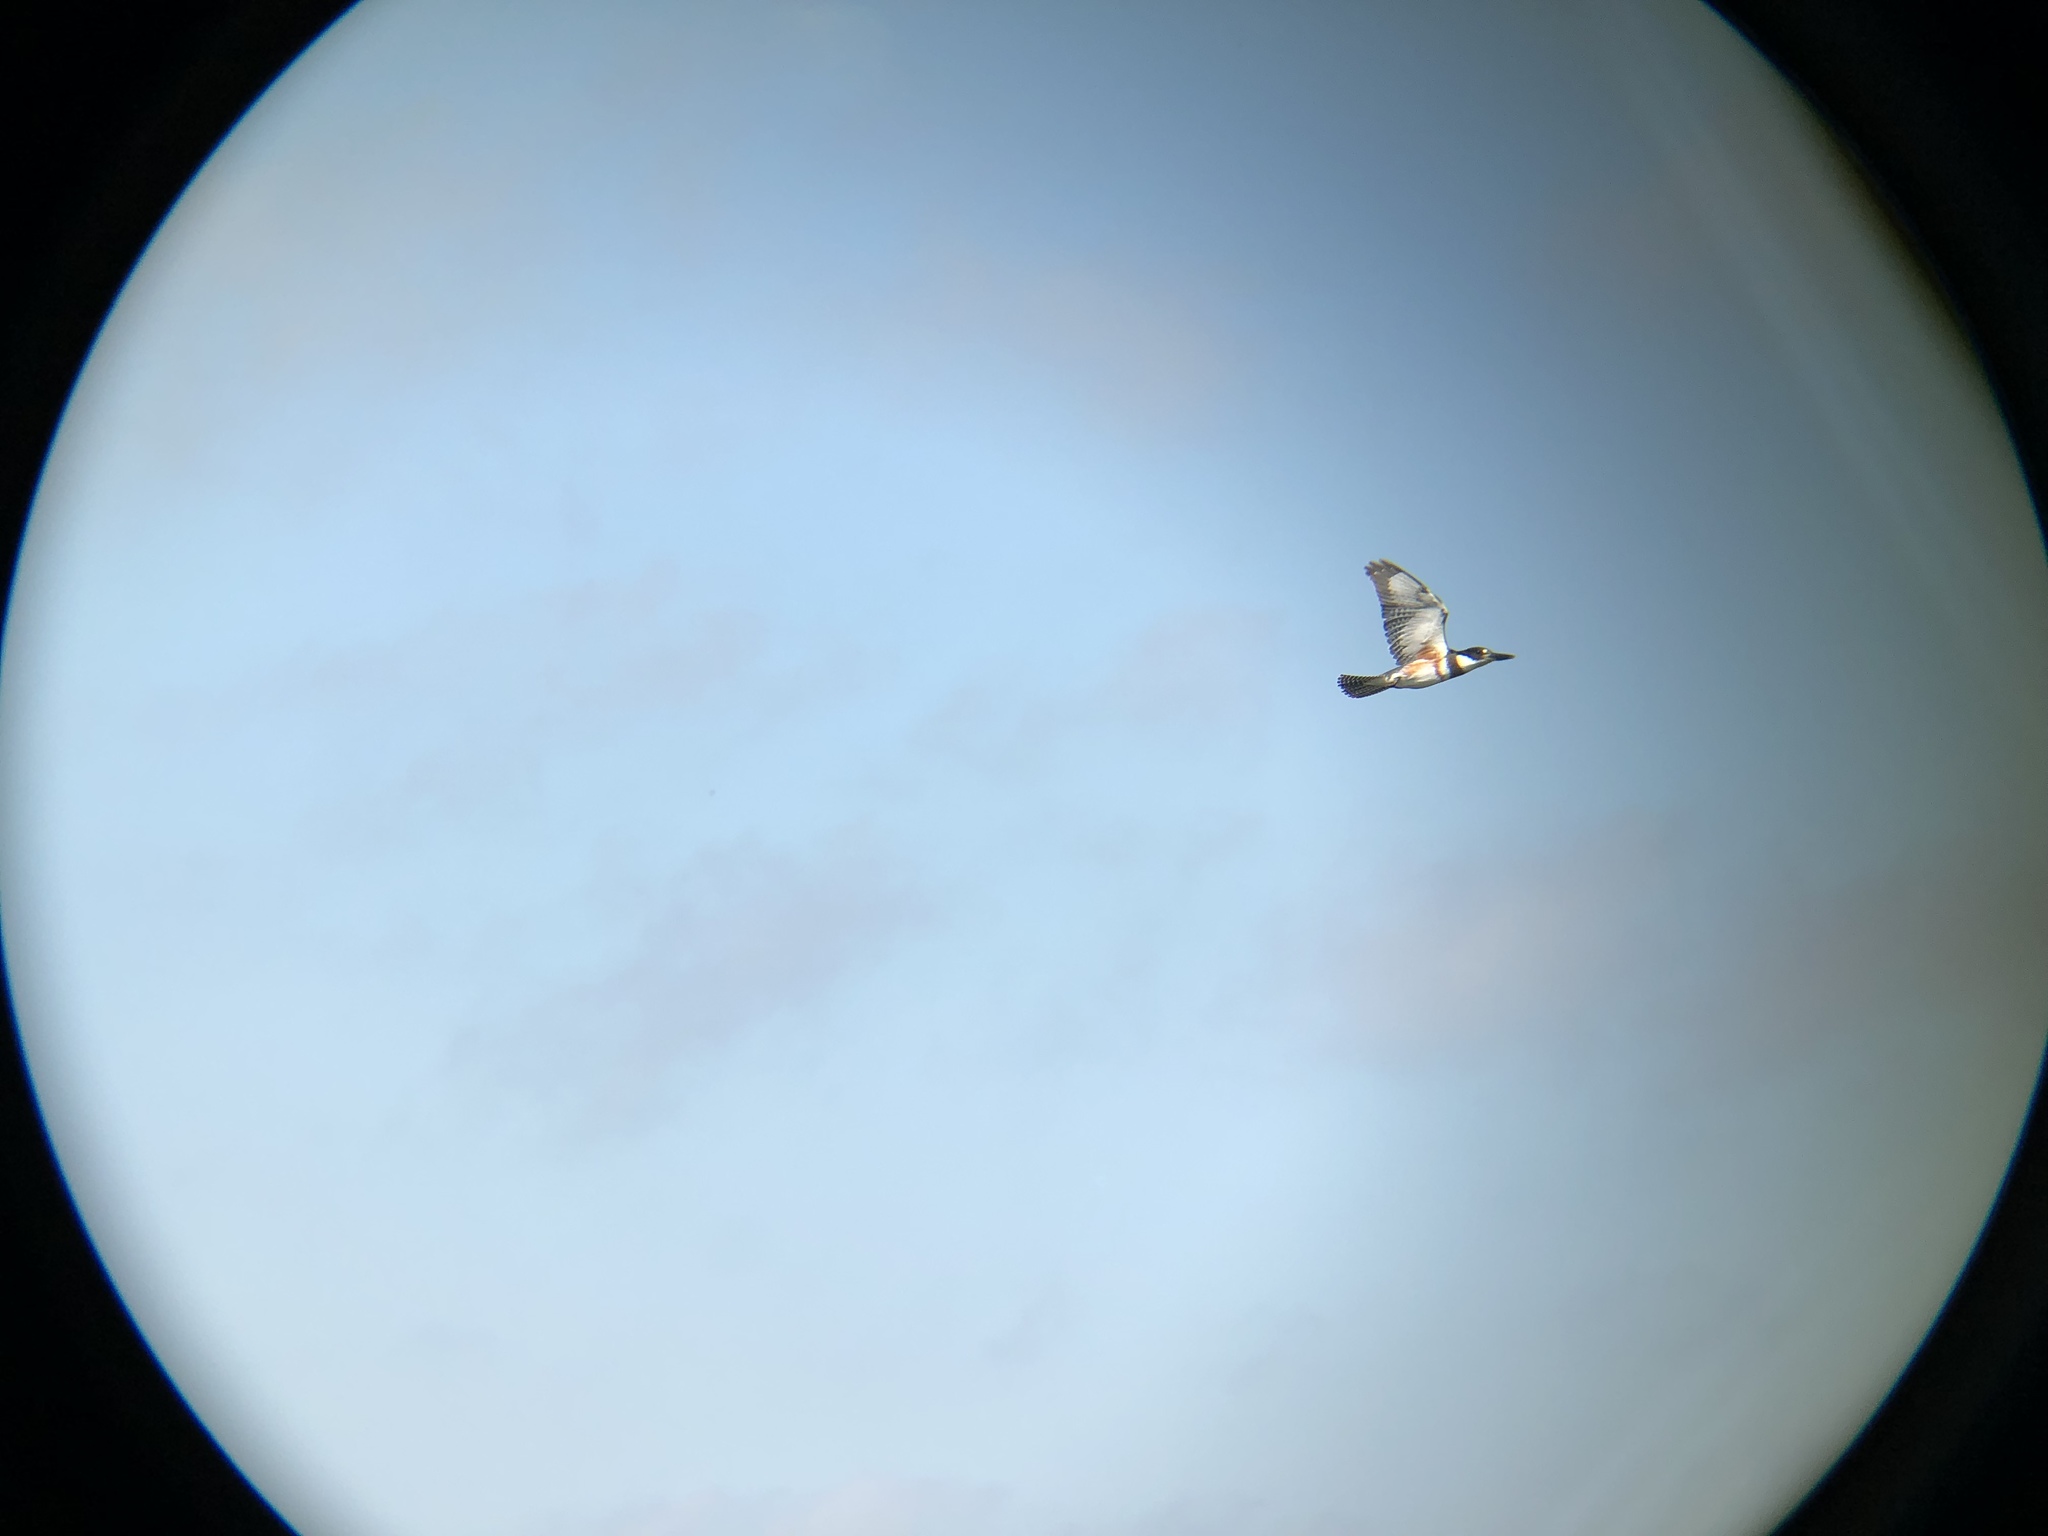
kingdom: Animalia
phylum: Chordata
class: Aves
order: Coraciiformes
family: Alcedinidae
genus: Megaceryle
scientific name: Megaceryle alcyon
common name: Belted kingfisher
